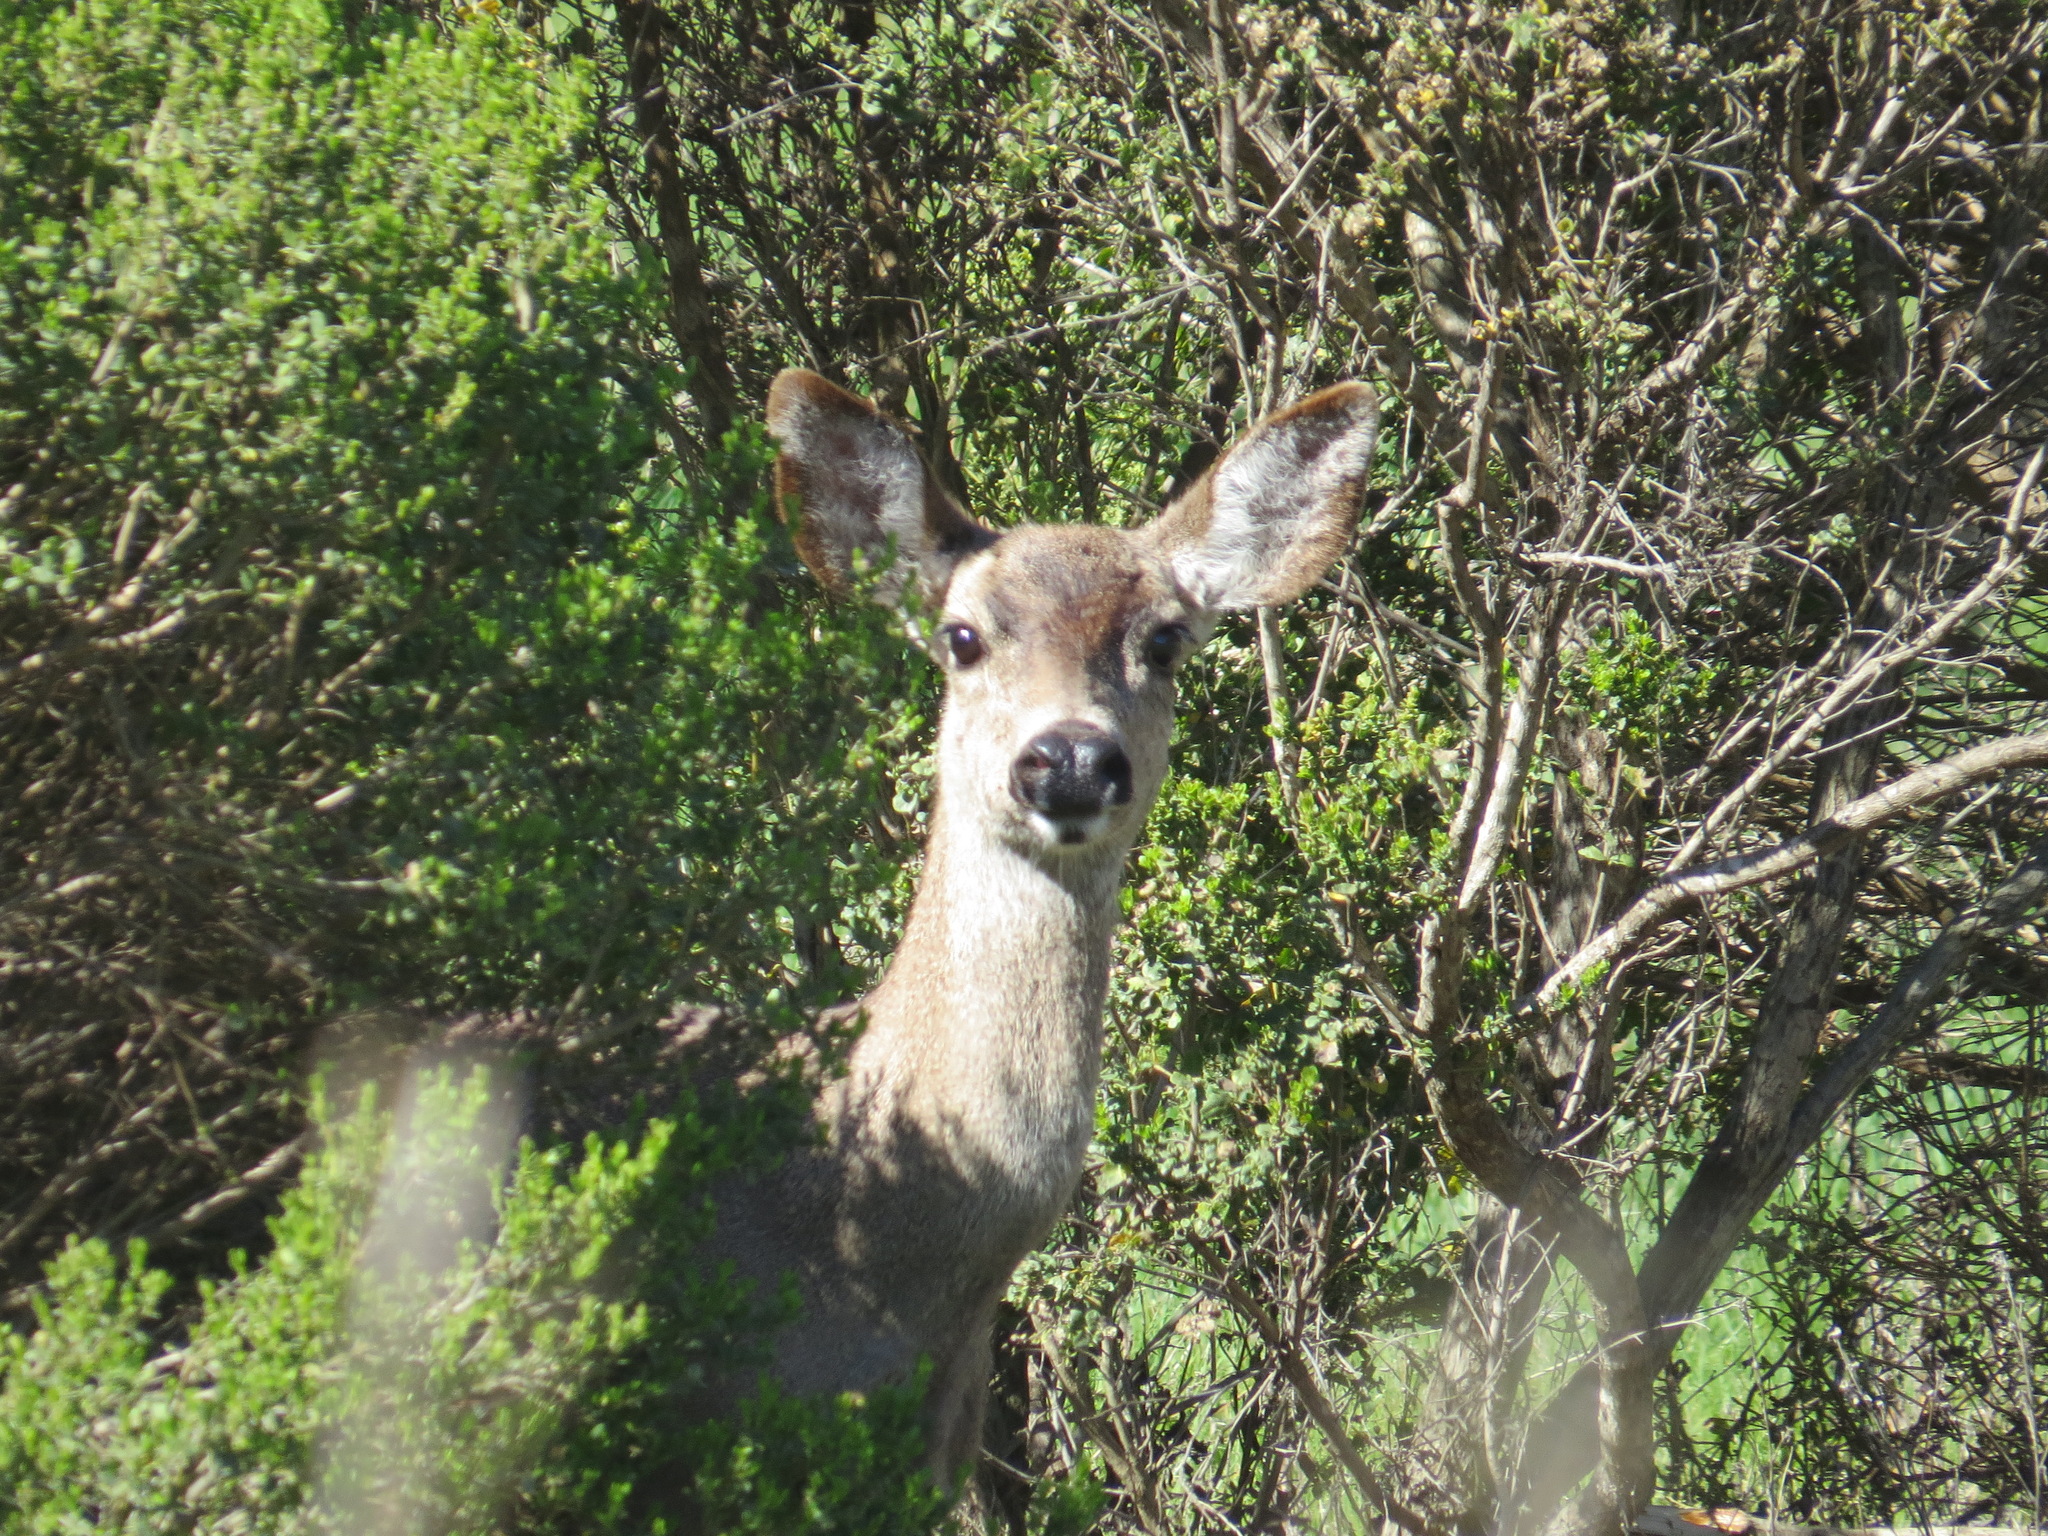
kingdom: Animalia
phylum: Chordata
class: Mammalia
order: Artiodactyla
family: Cervidae
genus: Odocoileus
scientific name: Odocoileus hemionus
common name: Mule deer
